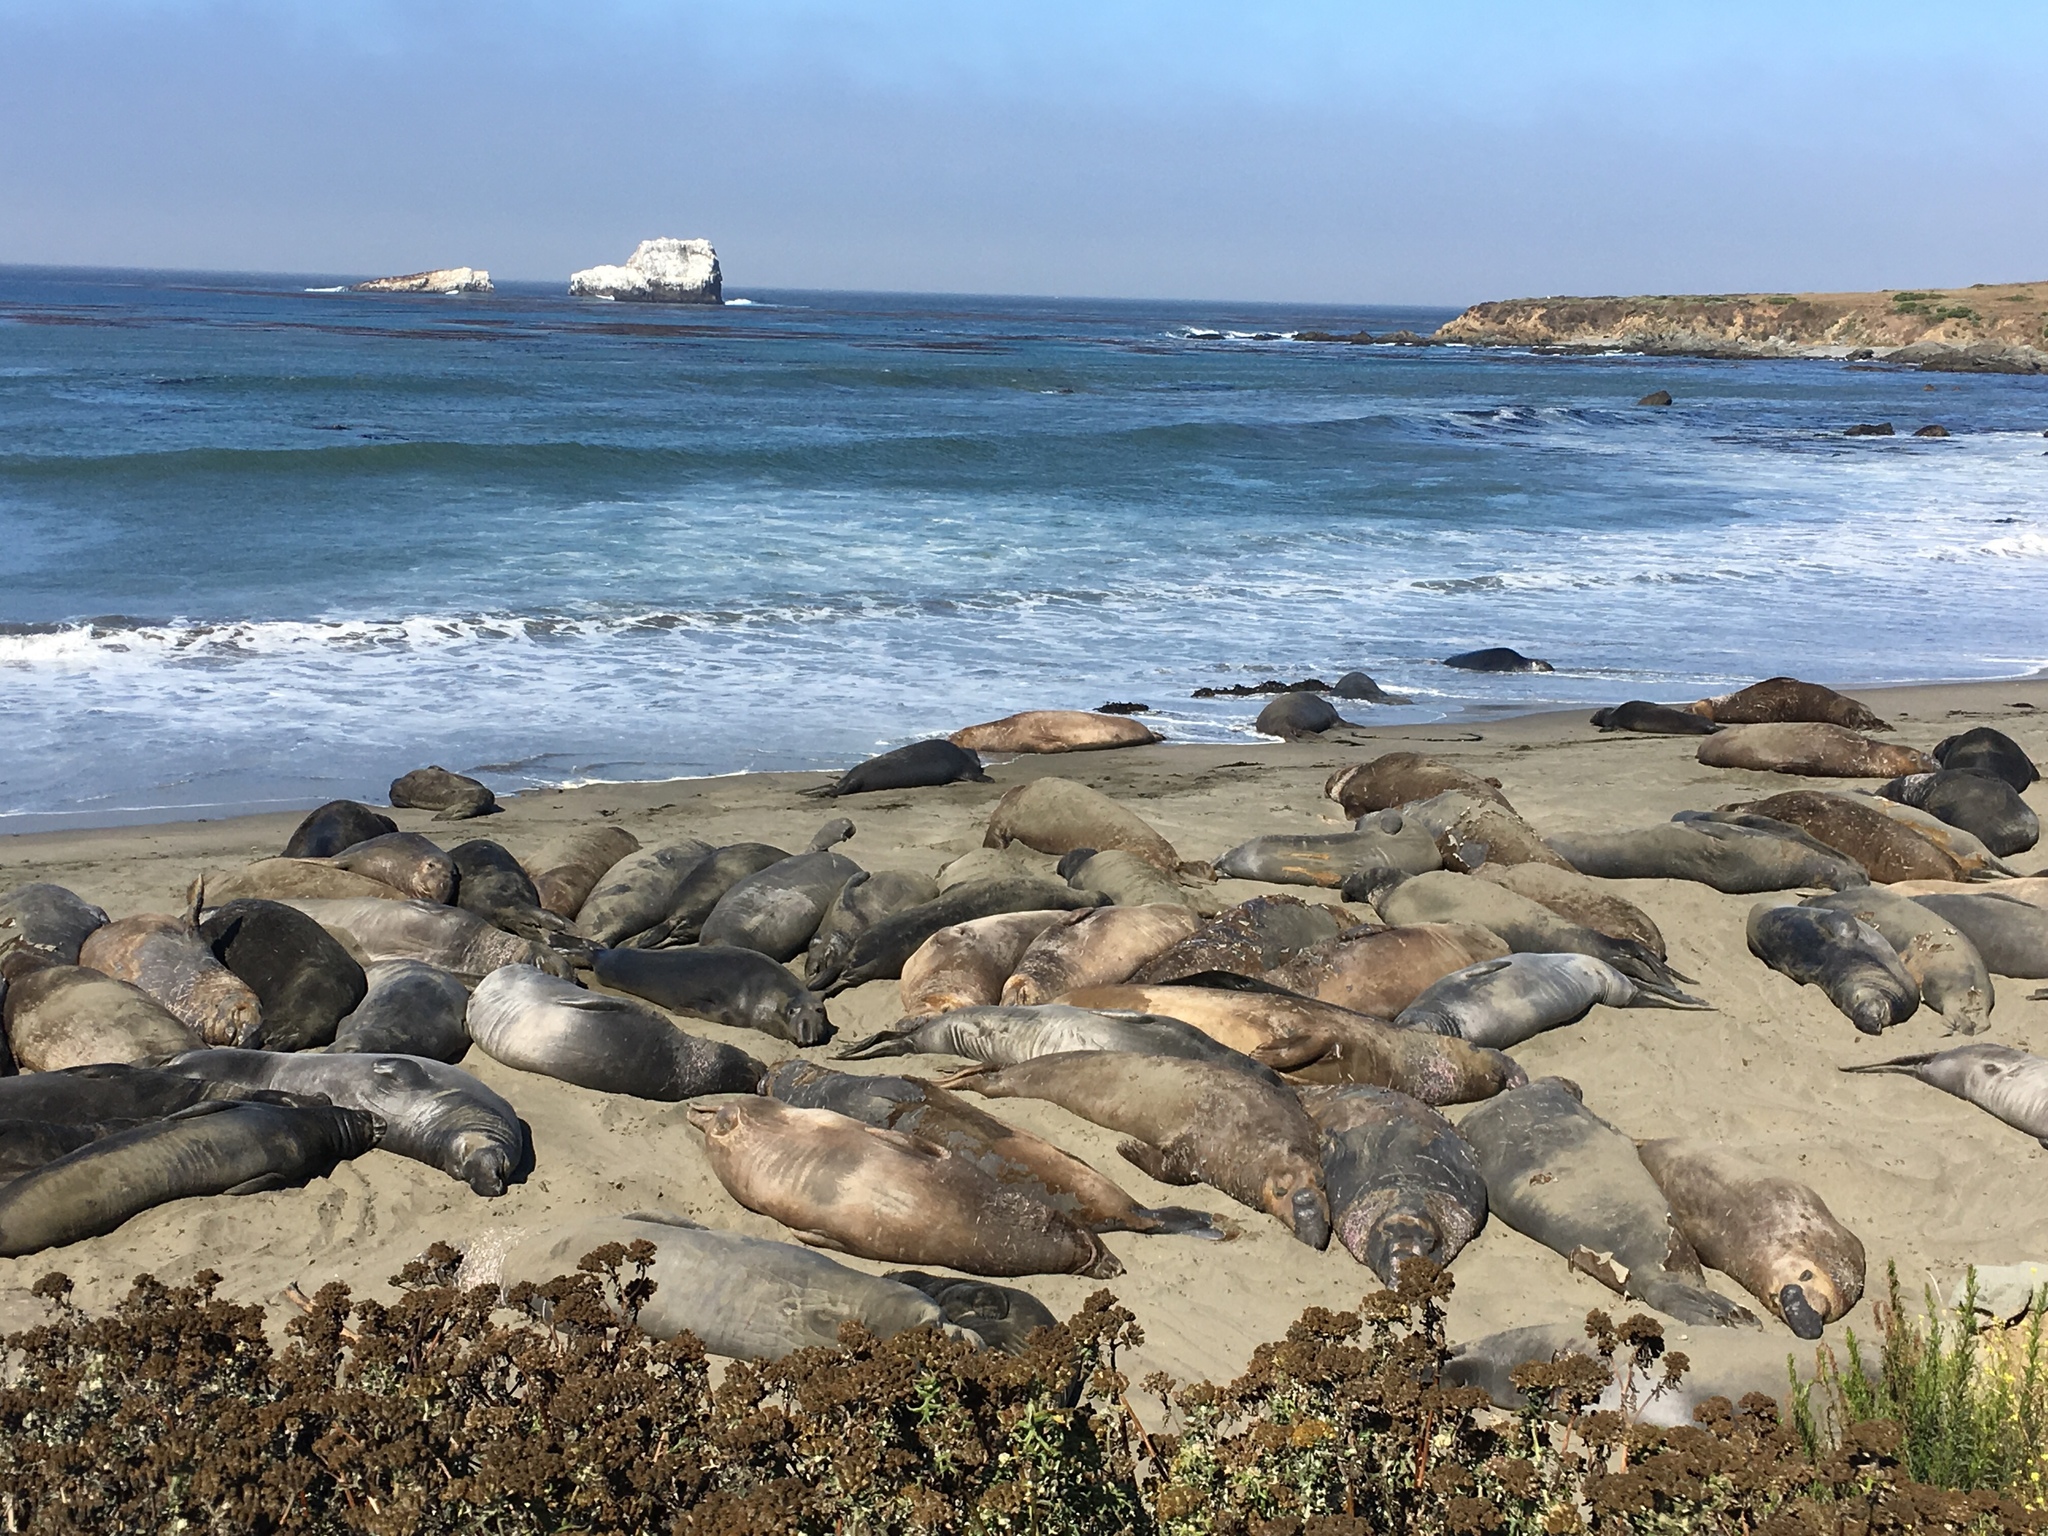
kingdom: Animalia
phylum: Chordata
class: Mammalia
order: Carnivora
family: Phocidae
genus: Mirounga
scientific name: Mirounga angustirostris
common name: Northern elephant seal
